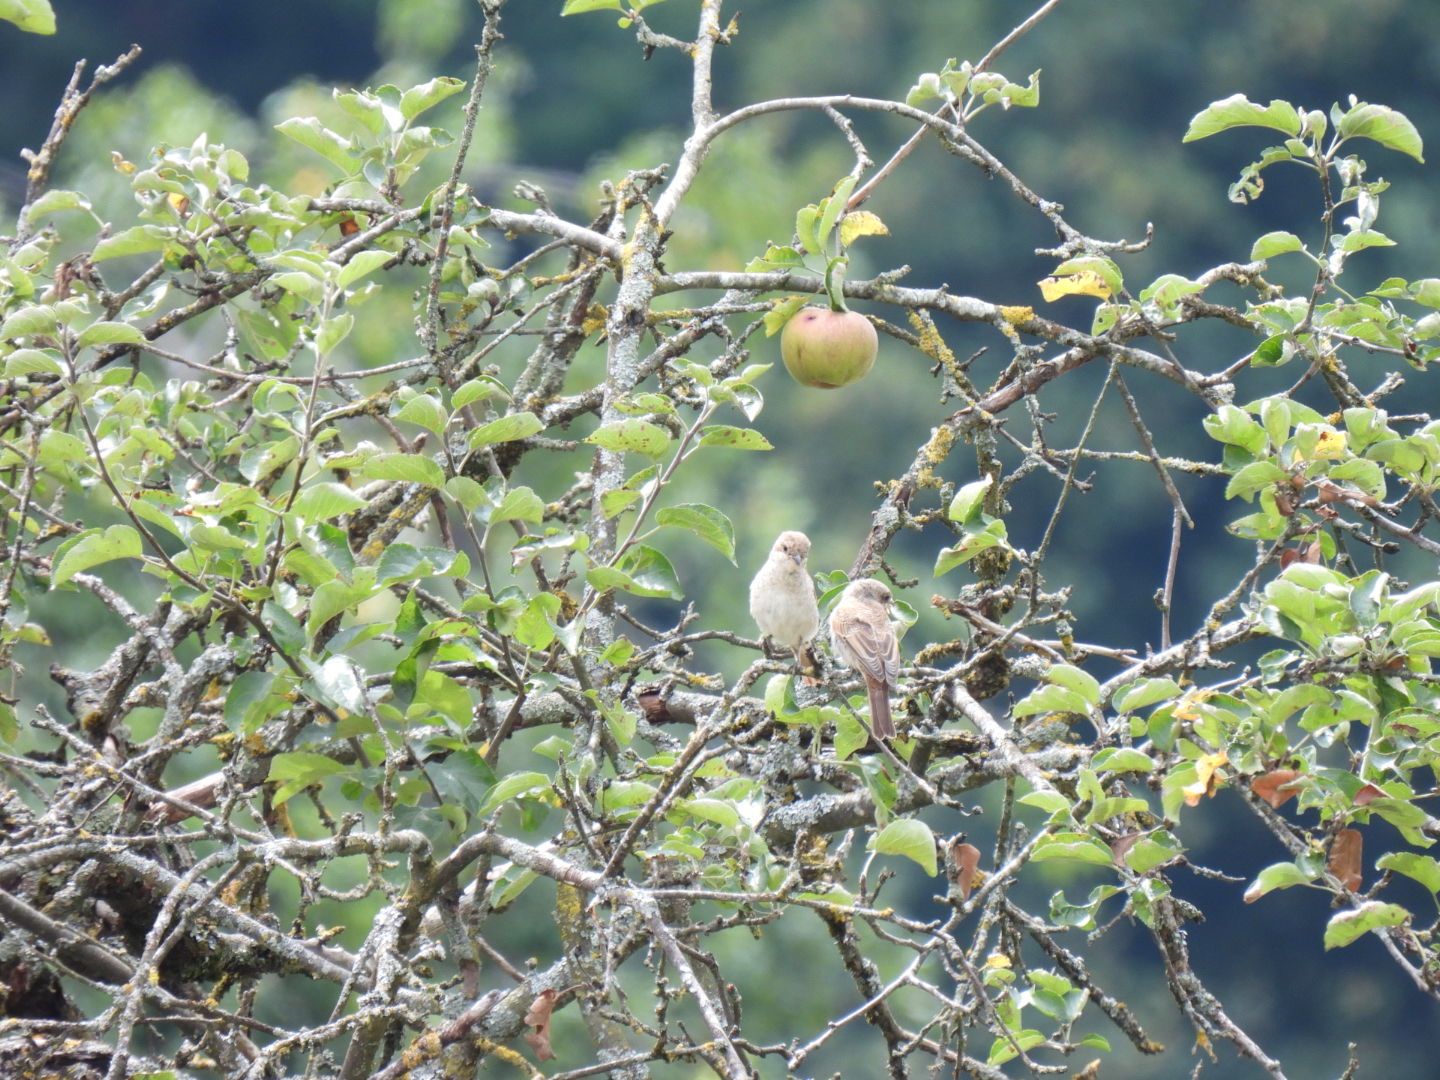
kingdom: Animalia
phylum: Chordata
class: Aves
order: Passeriformes
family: Laniidae
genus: Lanius
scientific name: Lanius collurio
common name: Red-backed shrike
